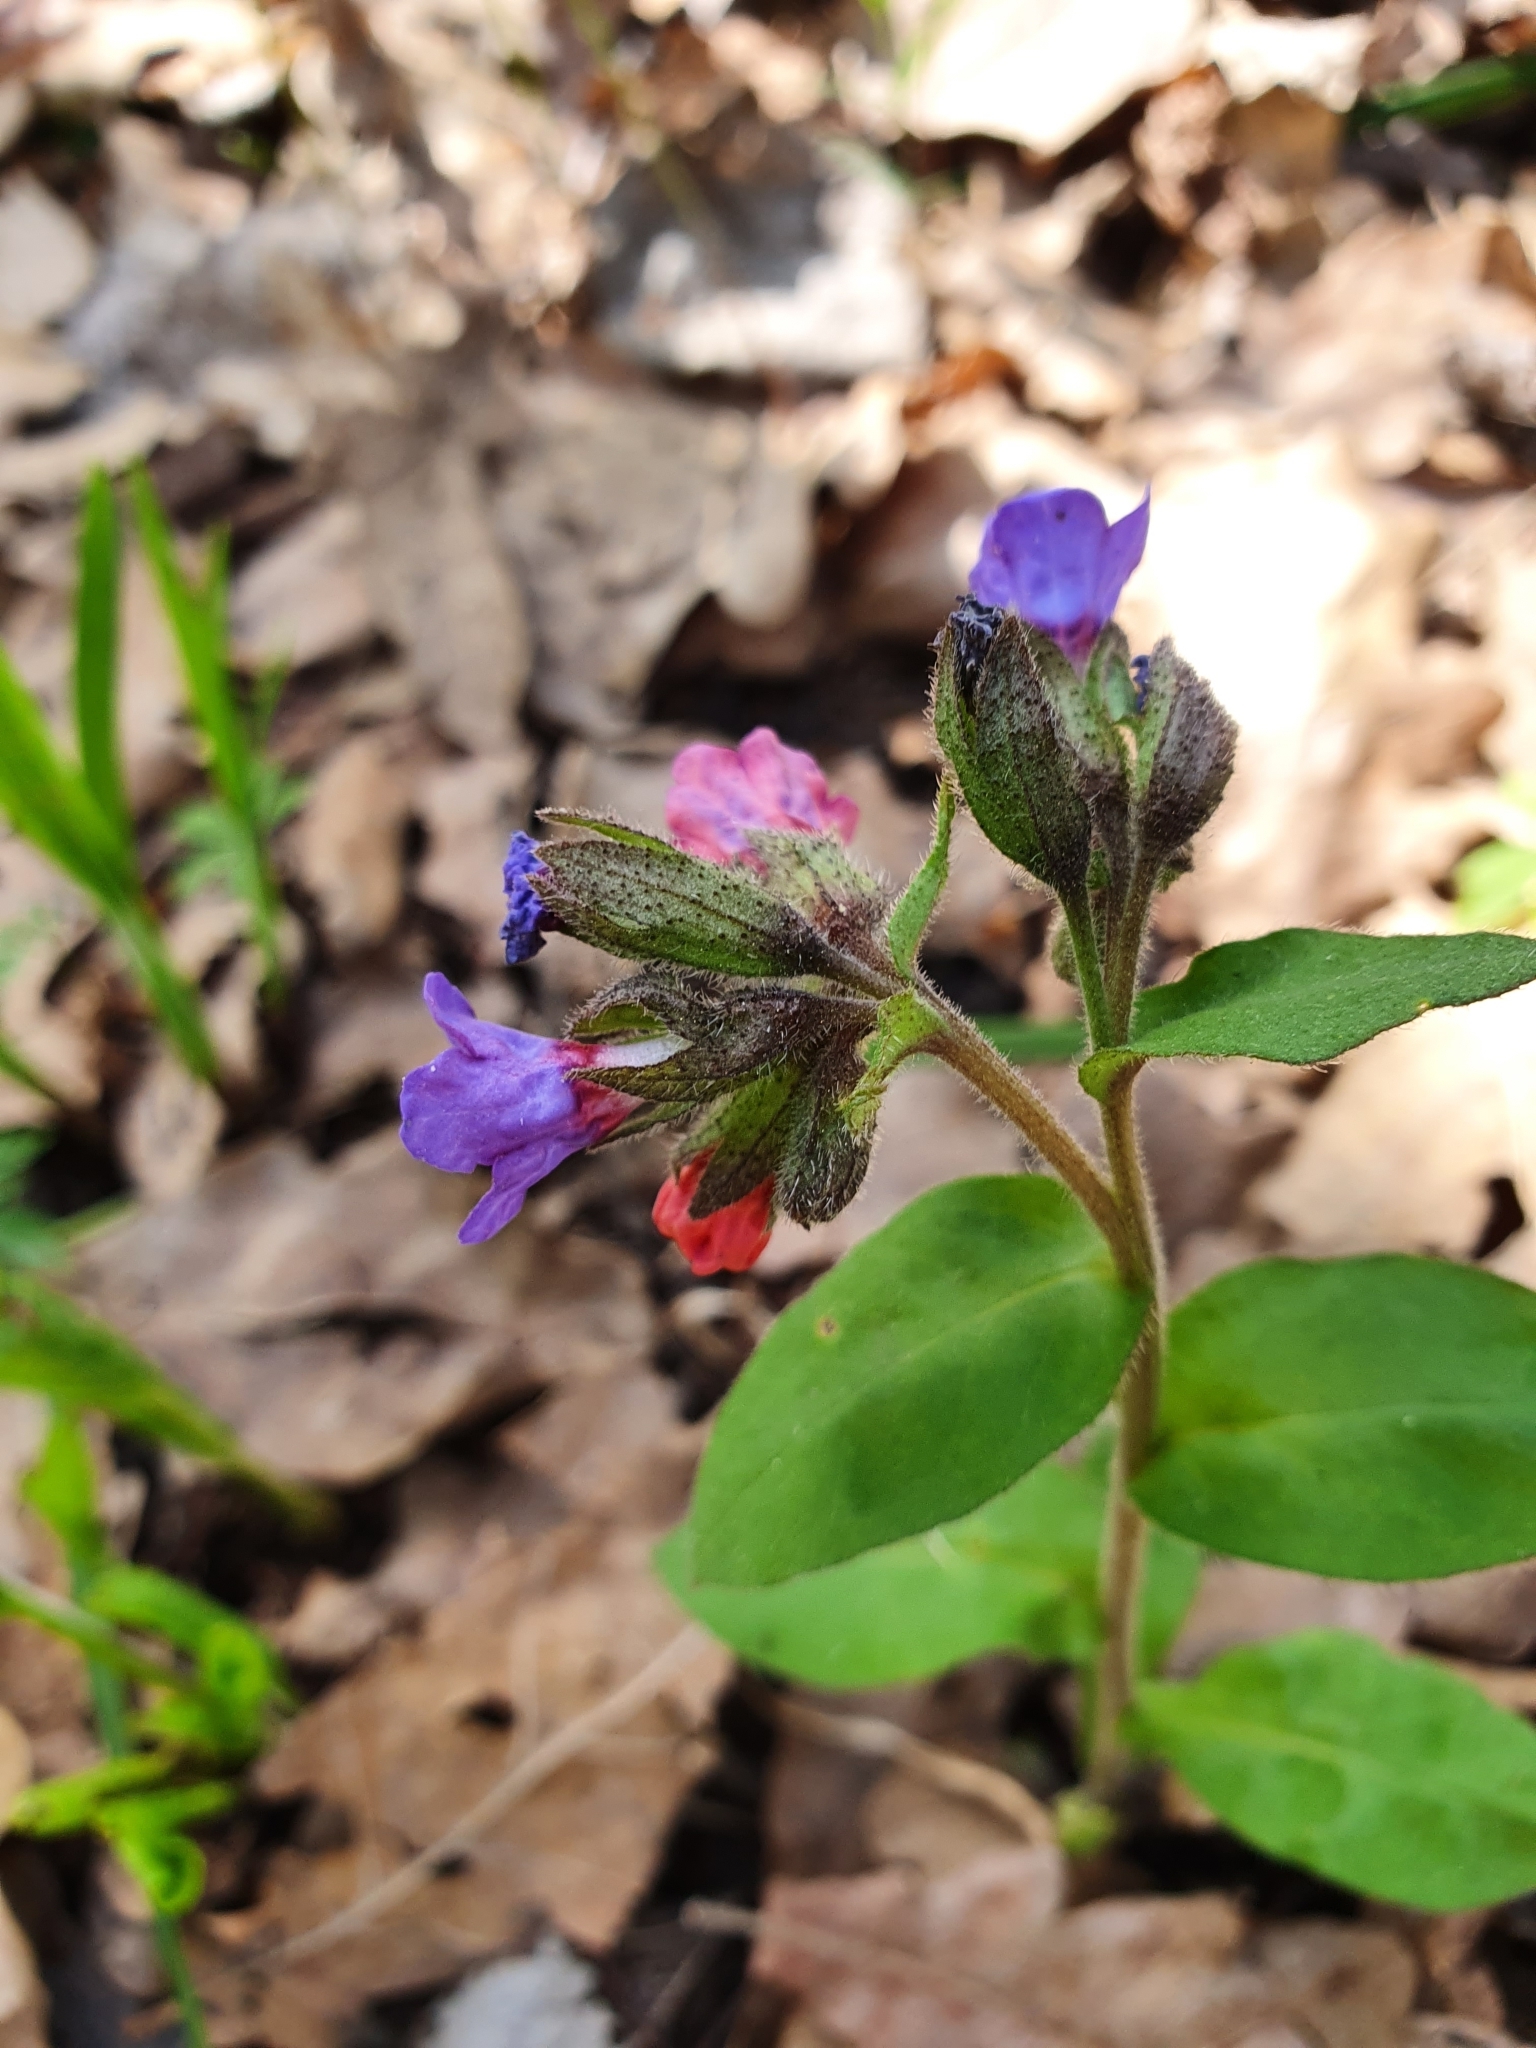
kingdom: Plantae
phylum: Tracheophyta
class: Magnoliopsida
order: Boraginales
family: Boraginaceae
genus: Pulmonaria
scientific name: Pulmonaria obscura
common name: Suffolk lungwort
